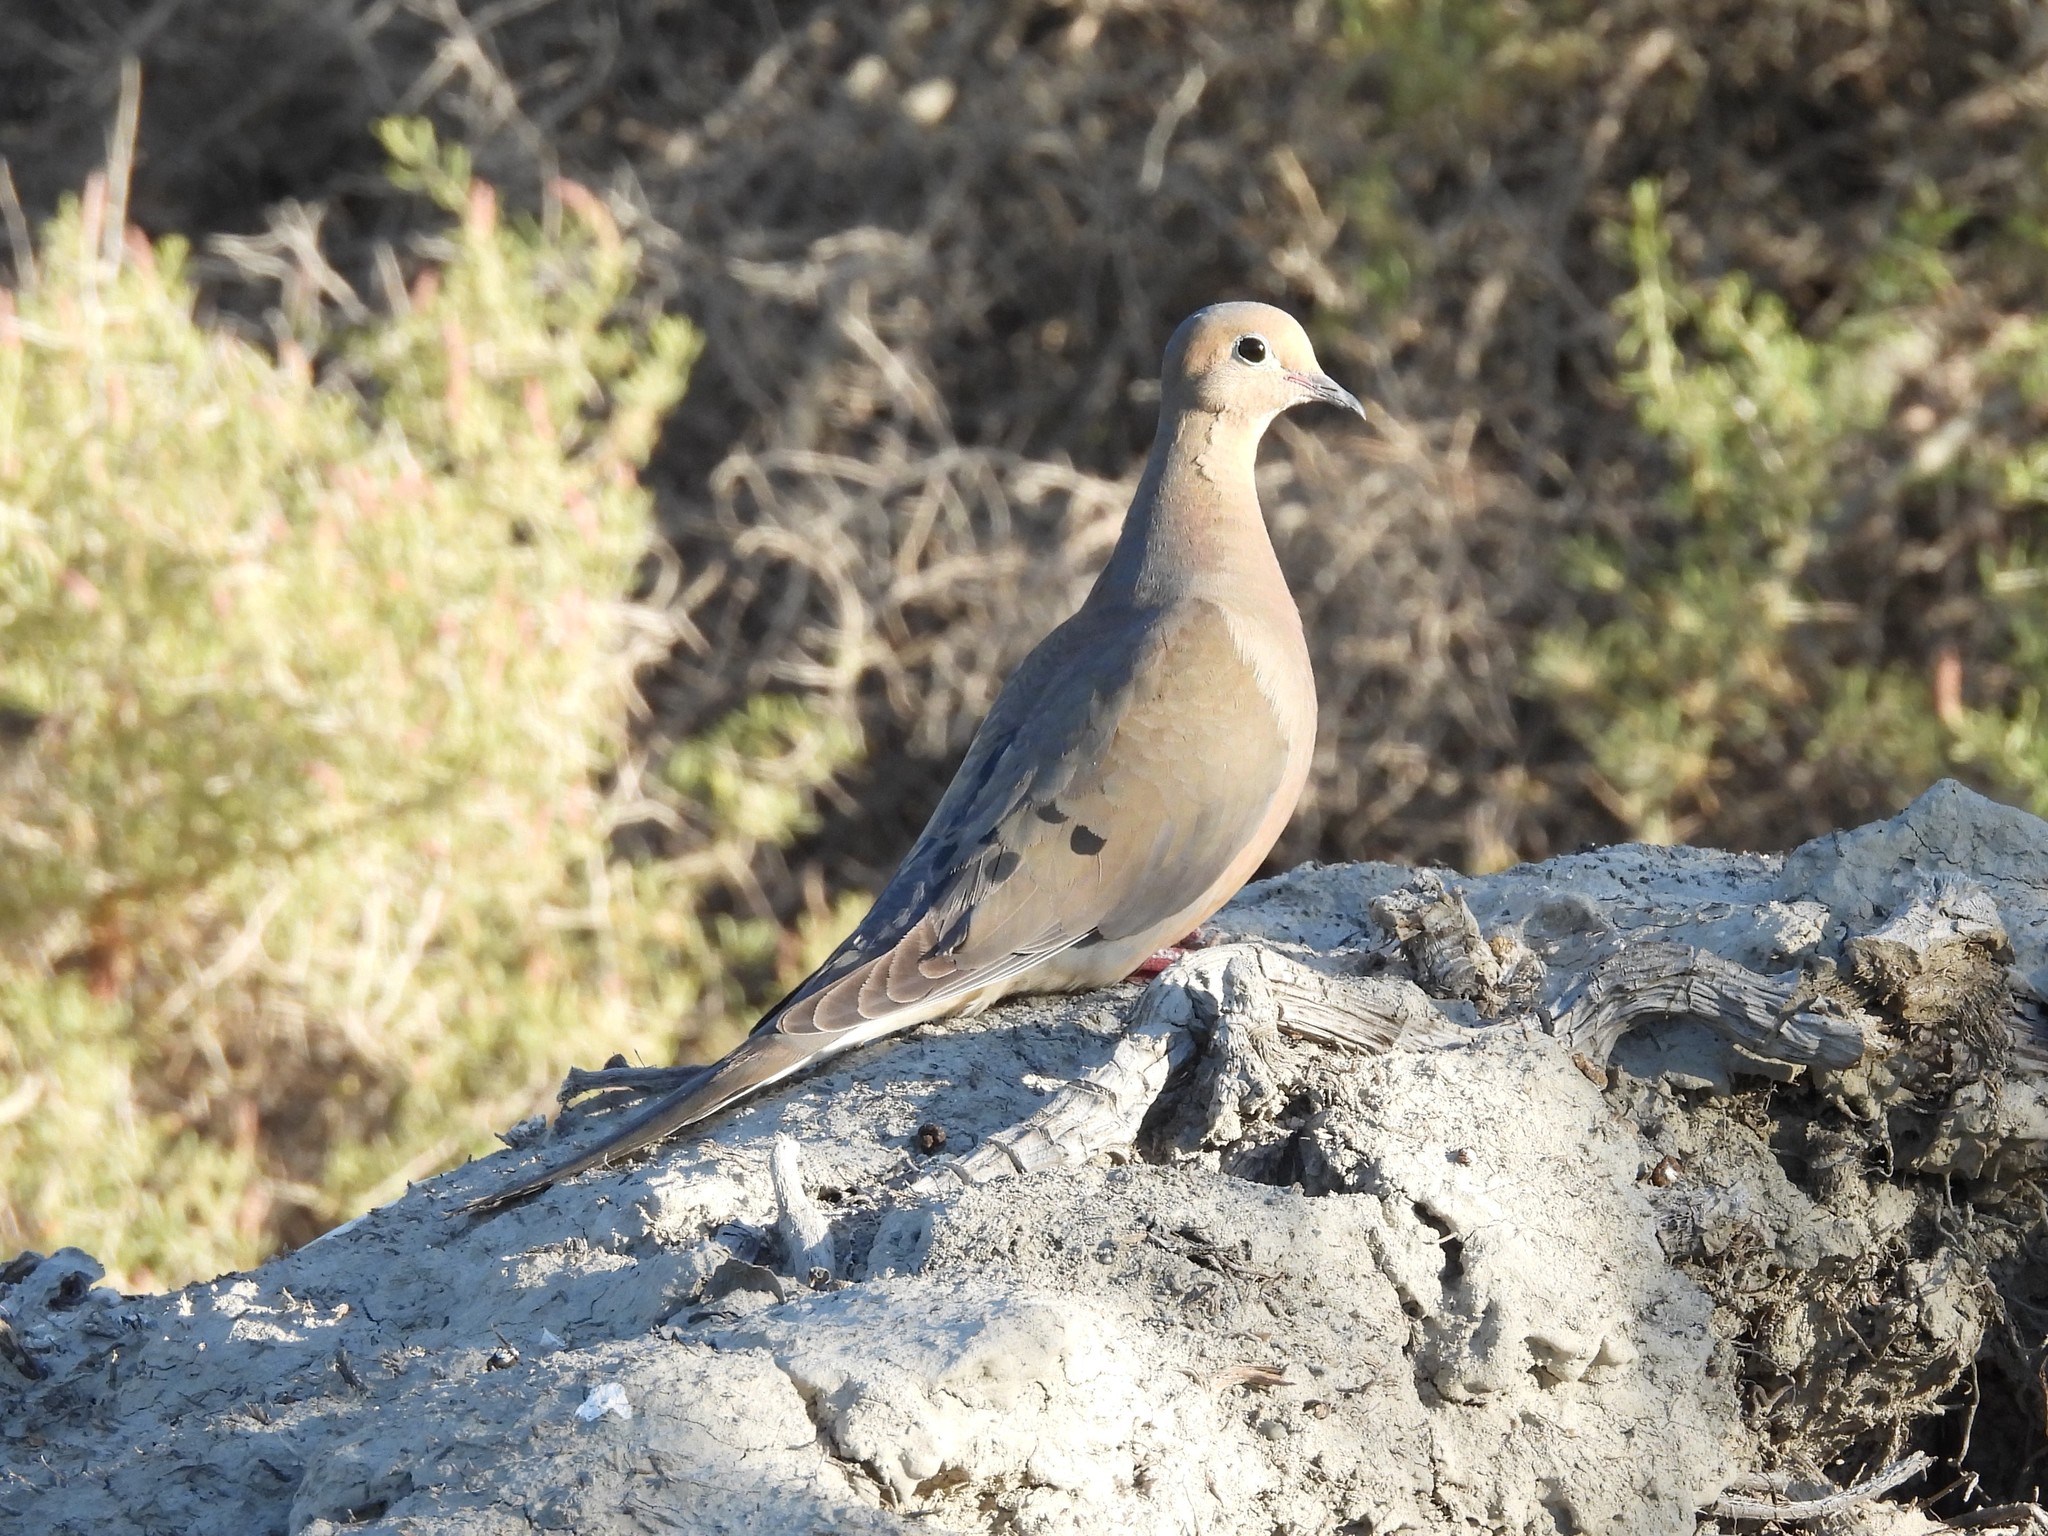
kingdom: Animalia
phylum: Chordata
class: Aves
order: Columbiformes
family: Columbidae
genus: Zenaida
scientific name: Zenaida macroura
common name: Mourning dove
